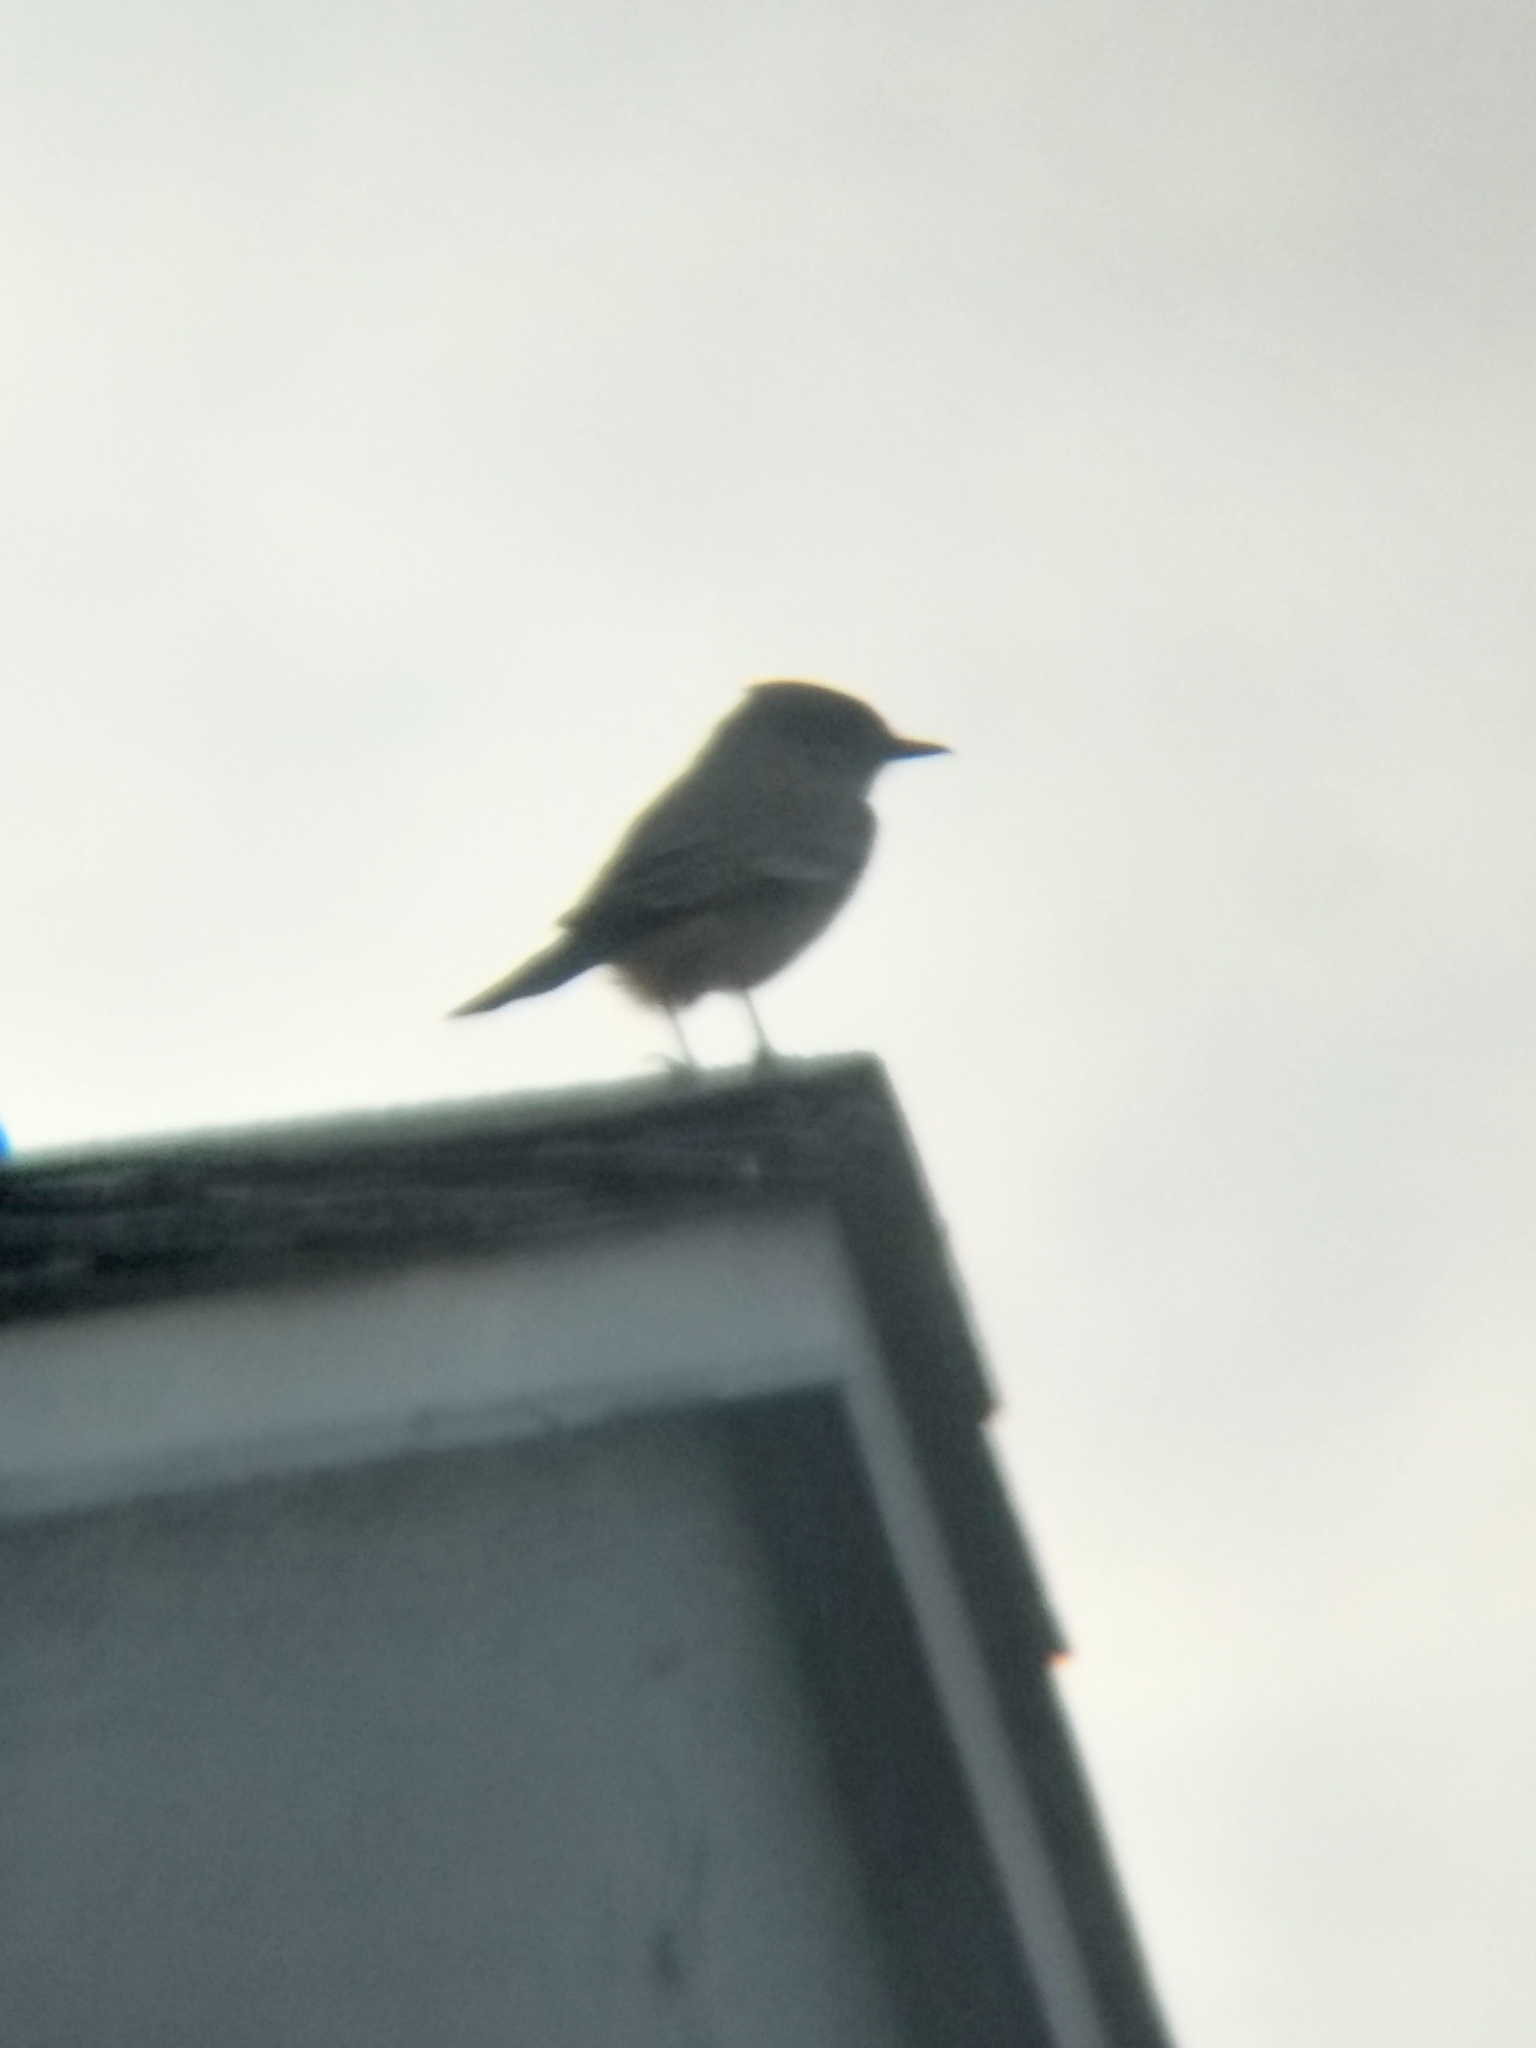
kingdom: Animalia
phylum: Chordata
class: Aves
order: Passeriformes
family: Tyrannidae
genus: Sayornis
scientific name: Sayornis saya
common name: Say's phoebe
